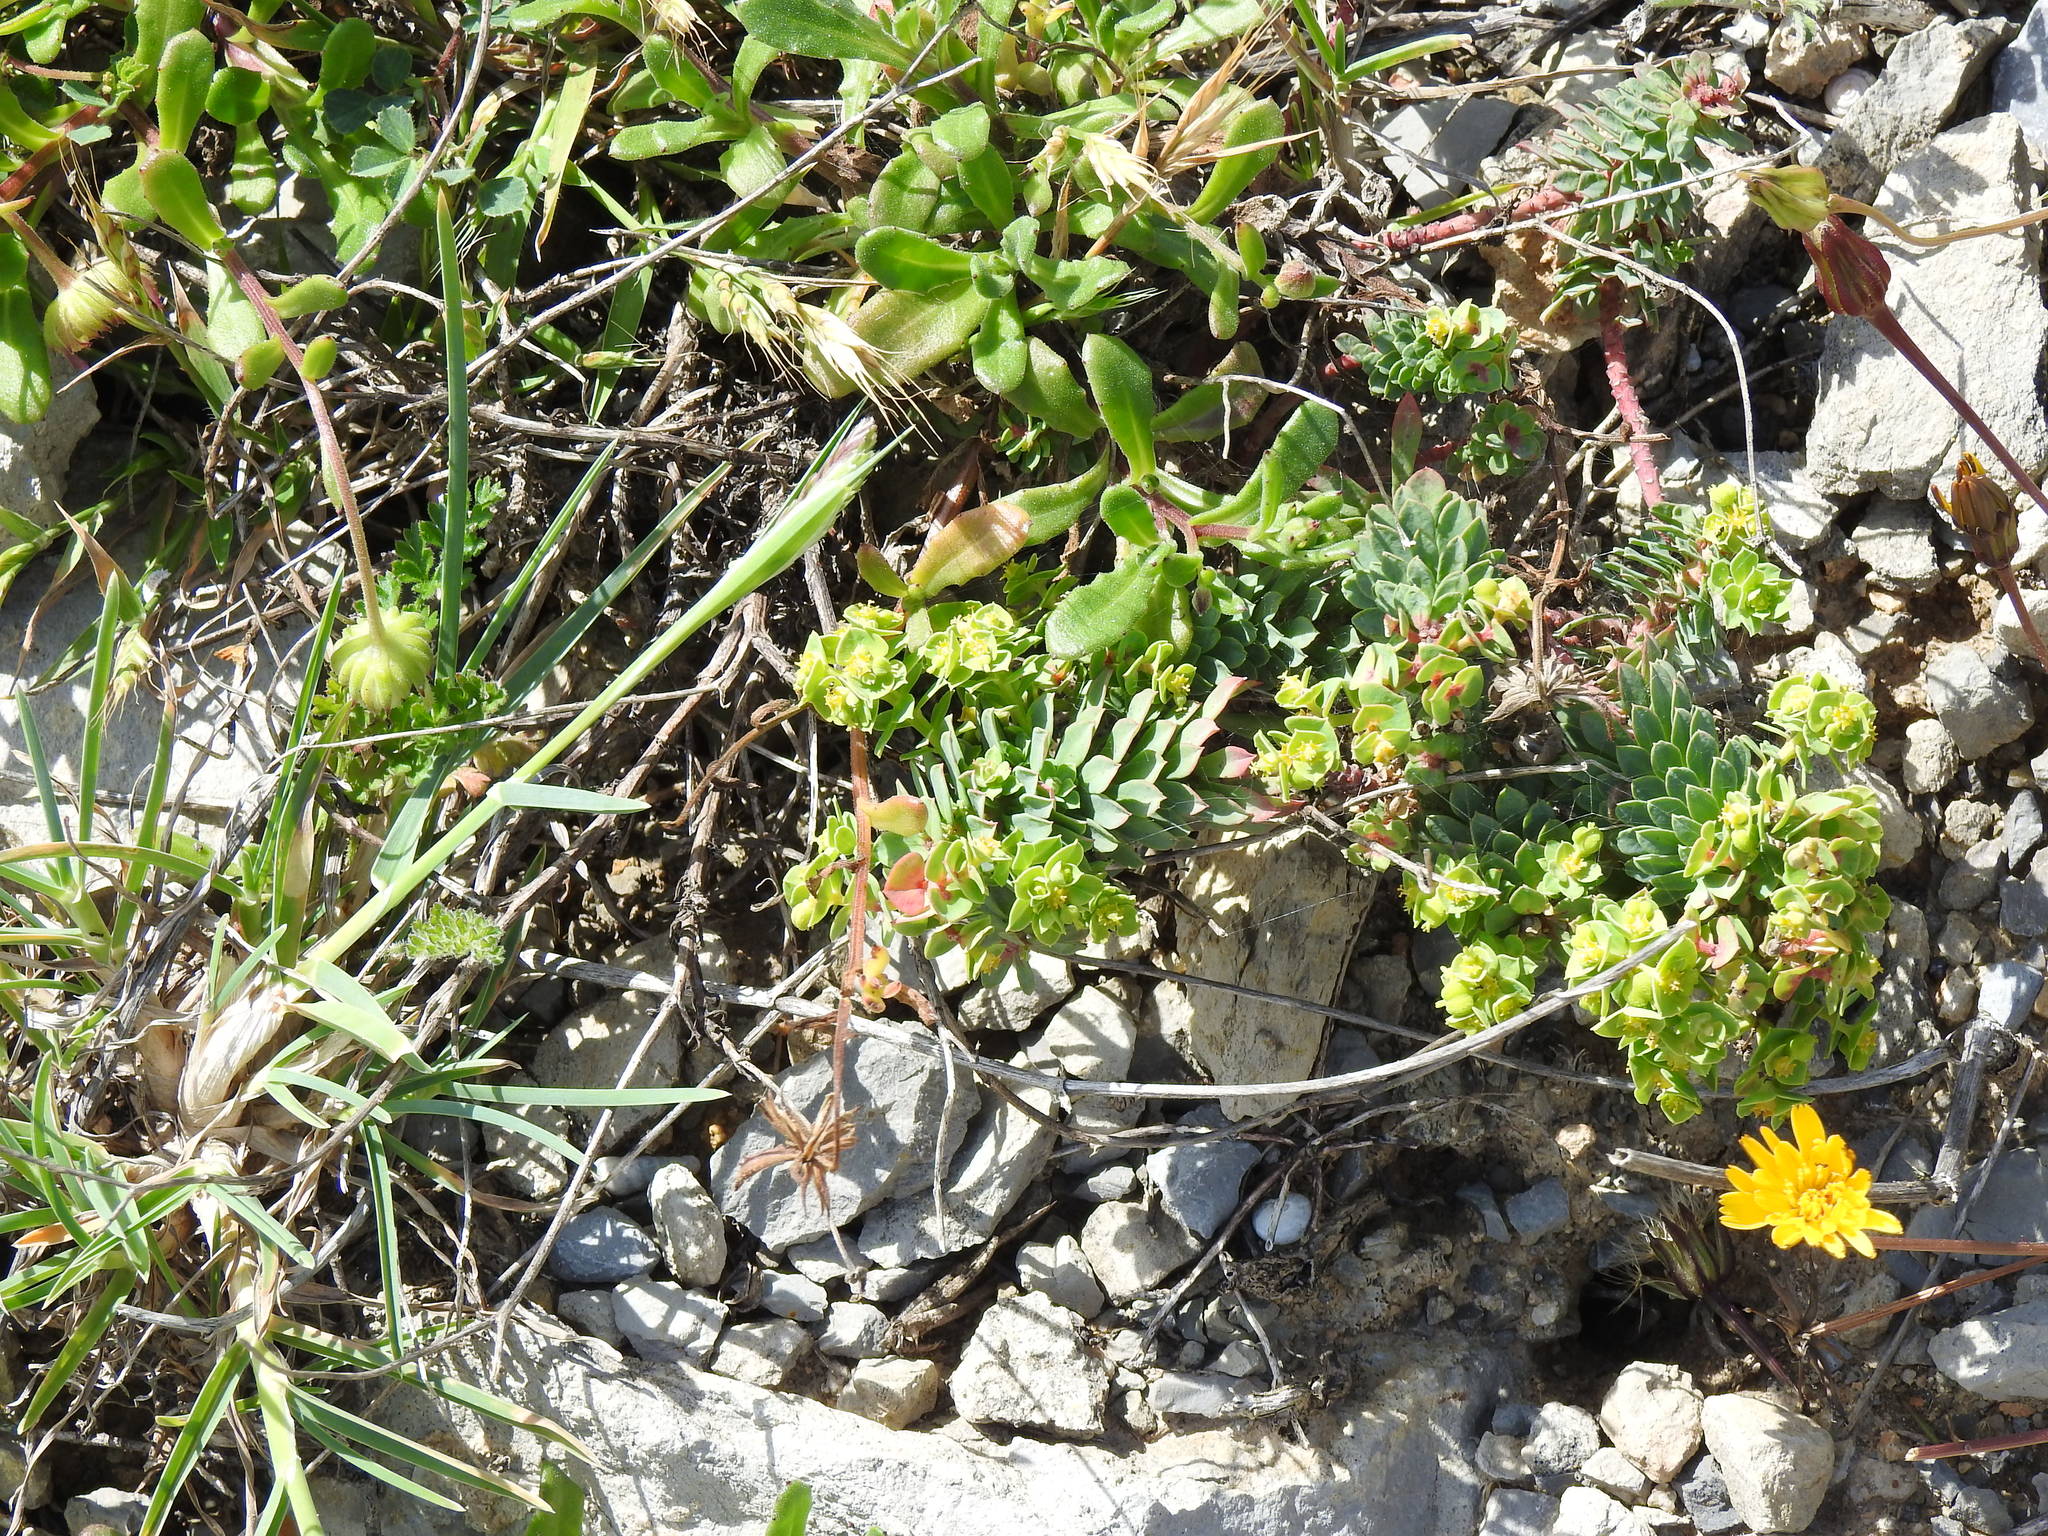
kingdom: Plantae
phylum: Tracheophyta
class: Magnoliopsida
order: Malpighiales
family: Euphorbiaceae
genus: Euphorbia
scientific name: Euphorbia portlandica
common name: Portland spurge
